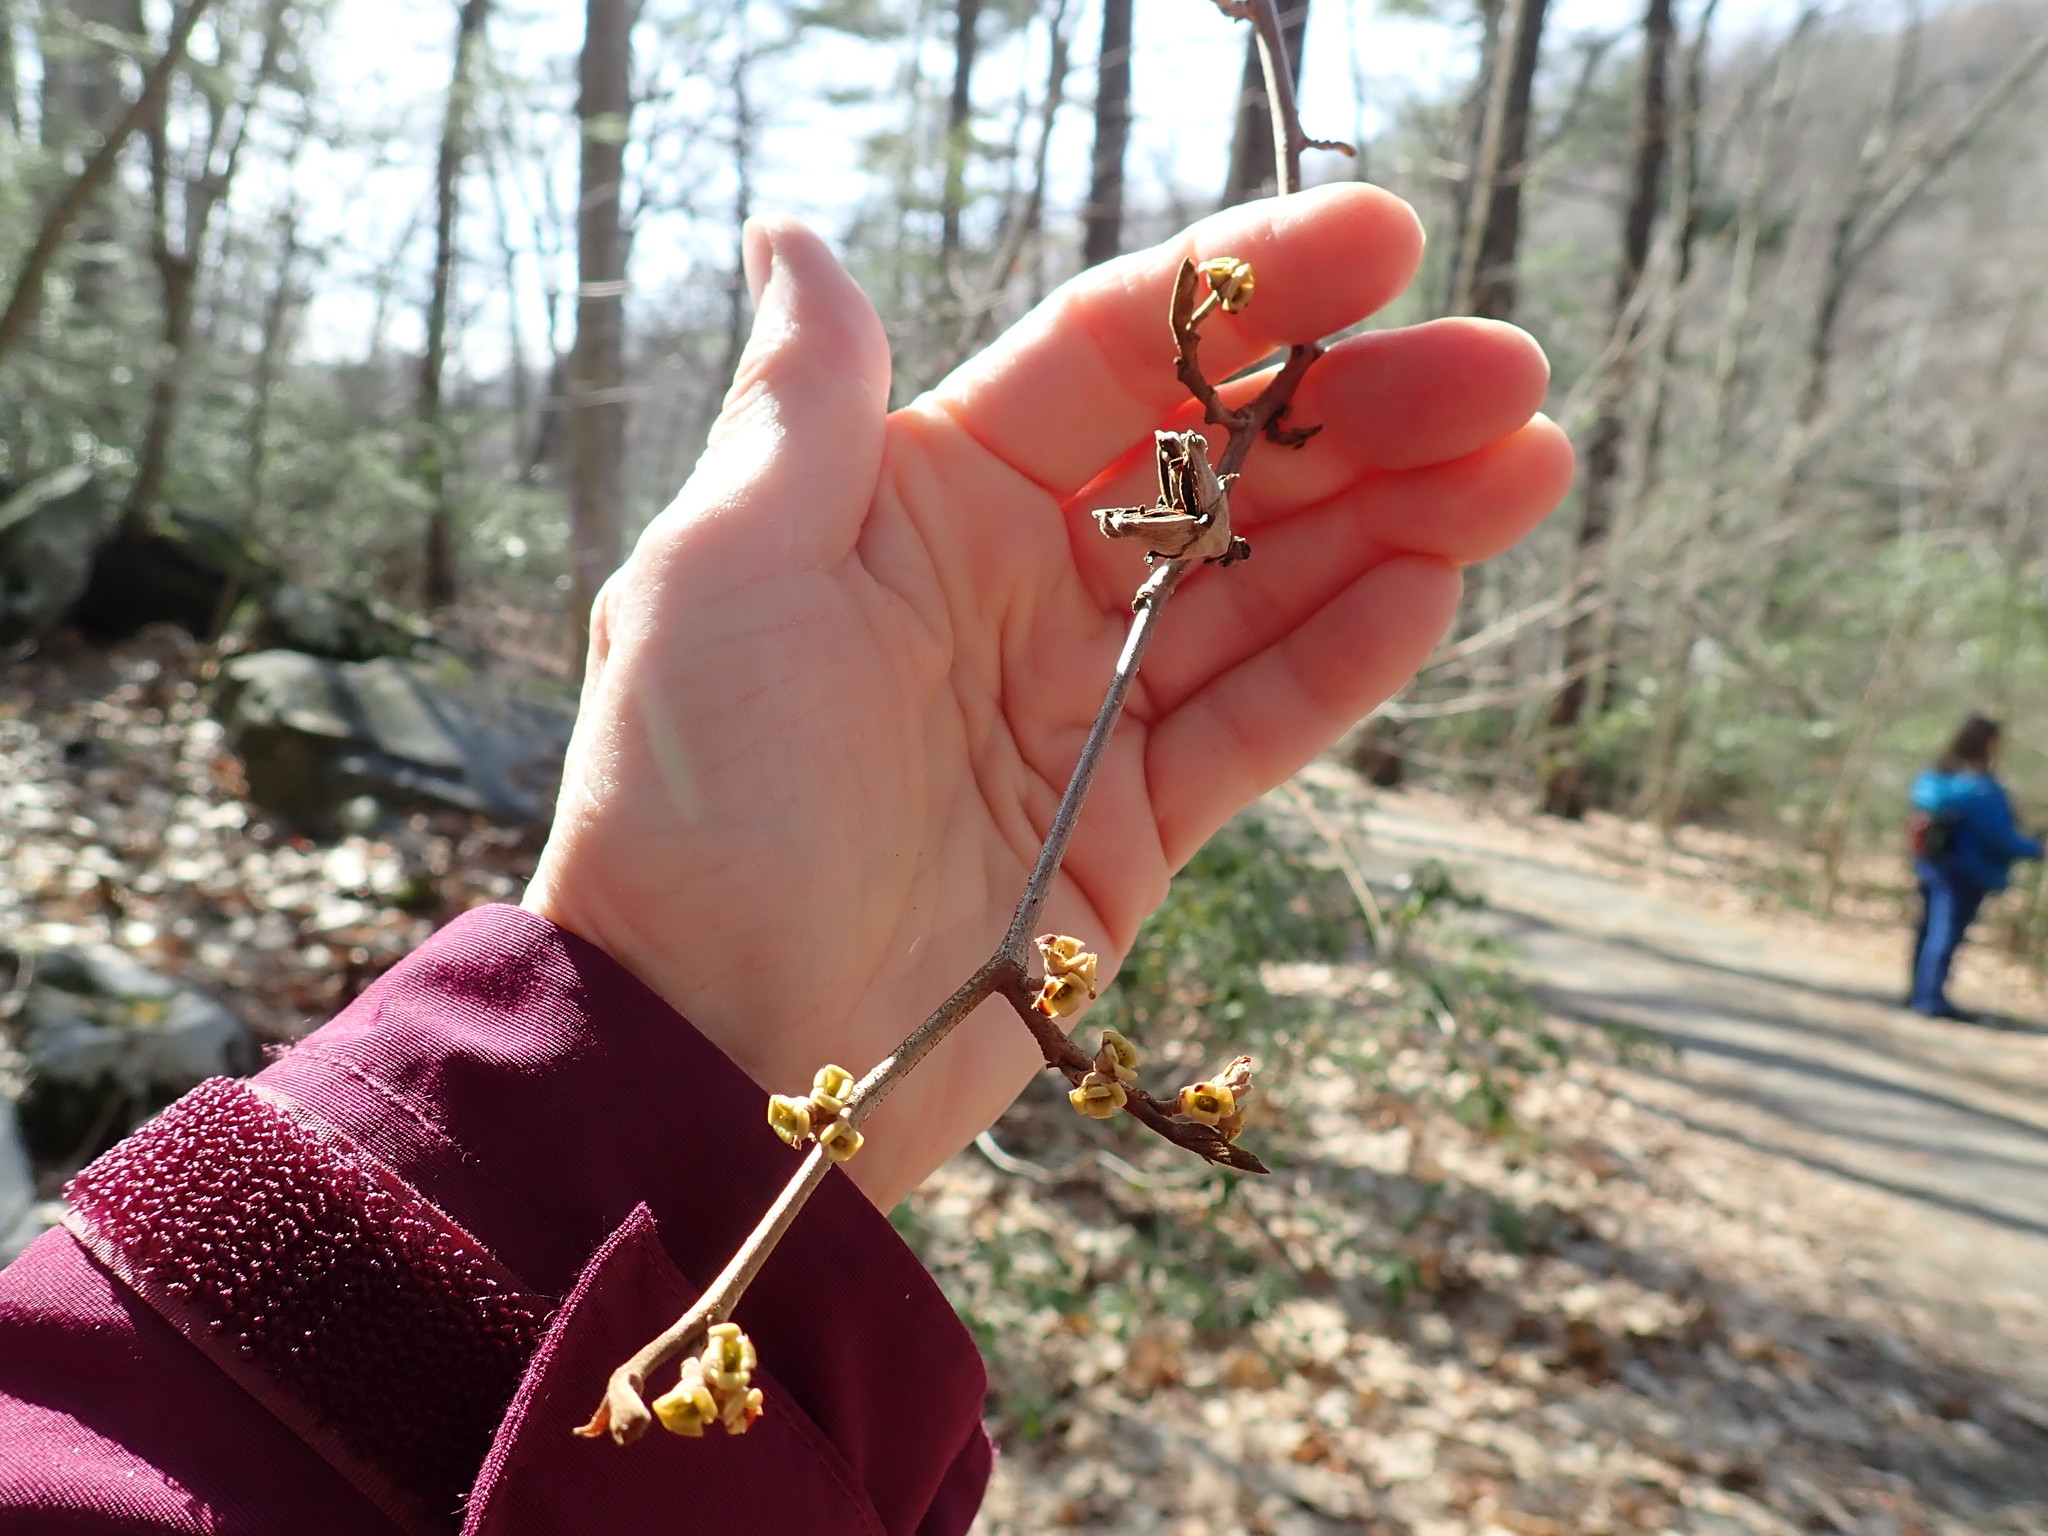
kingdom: Plantae
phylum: Tracheophyta
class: Magnoliopsida
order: Saxifragales
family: Hamamelidaceae
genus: Hamamelis
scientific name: Hamamelis virginiana
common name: Witch-hazel
